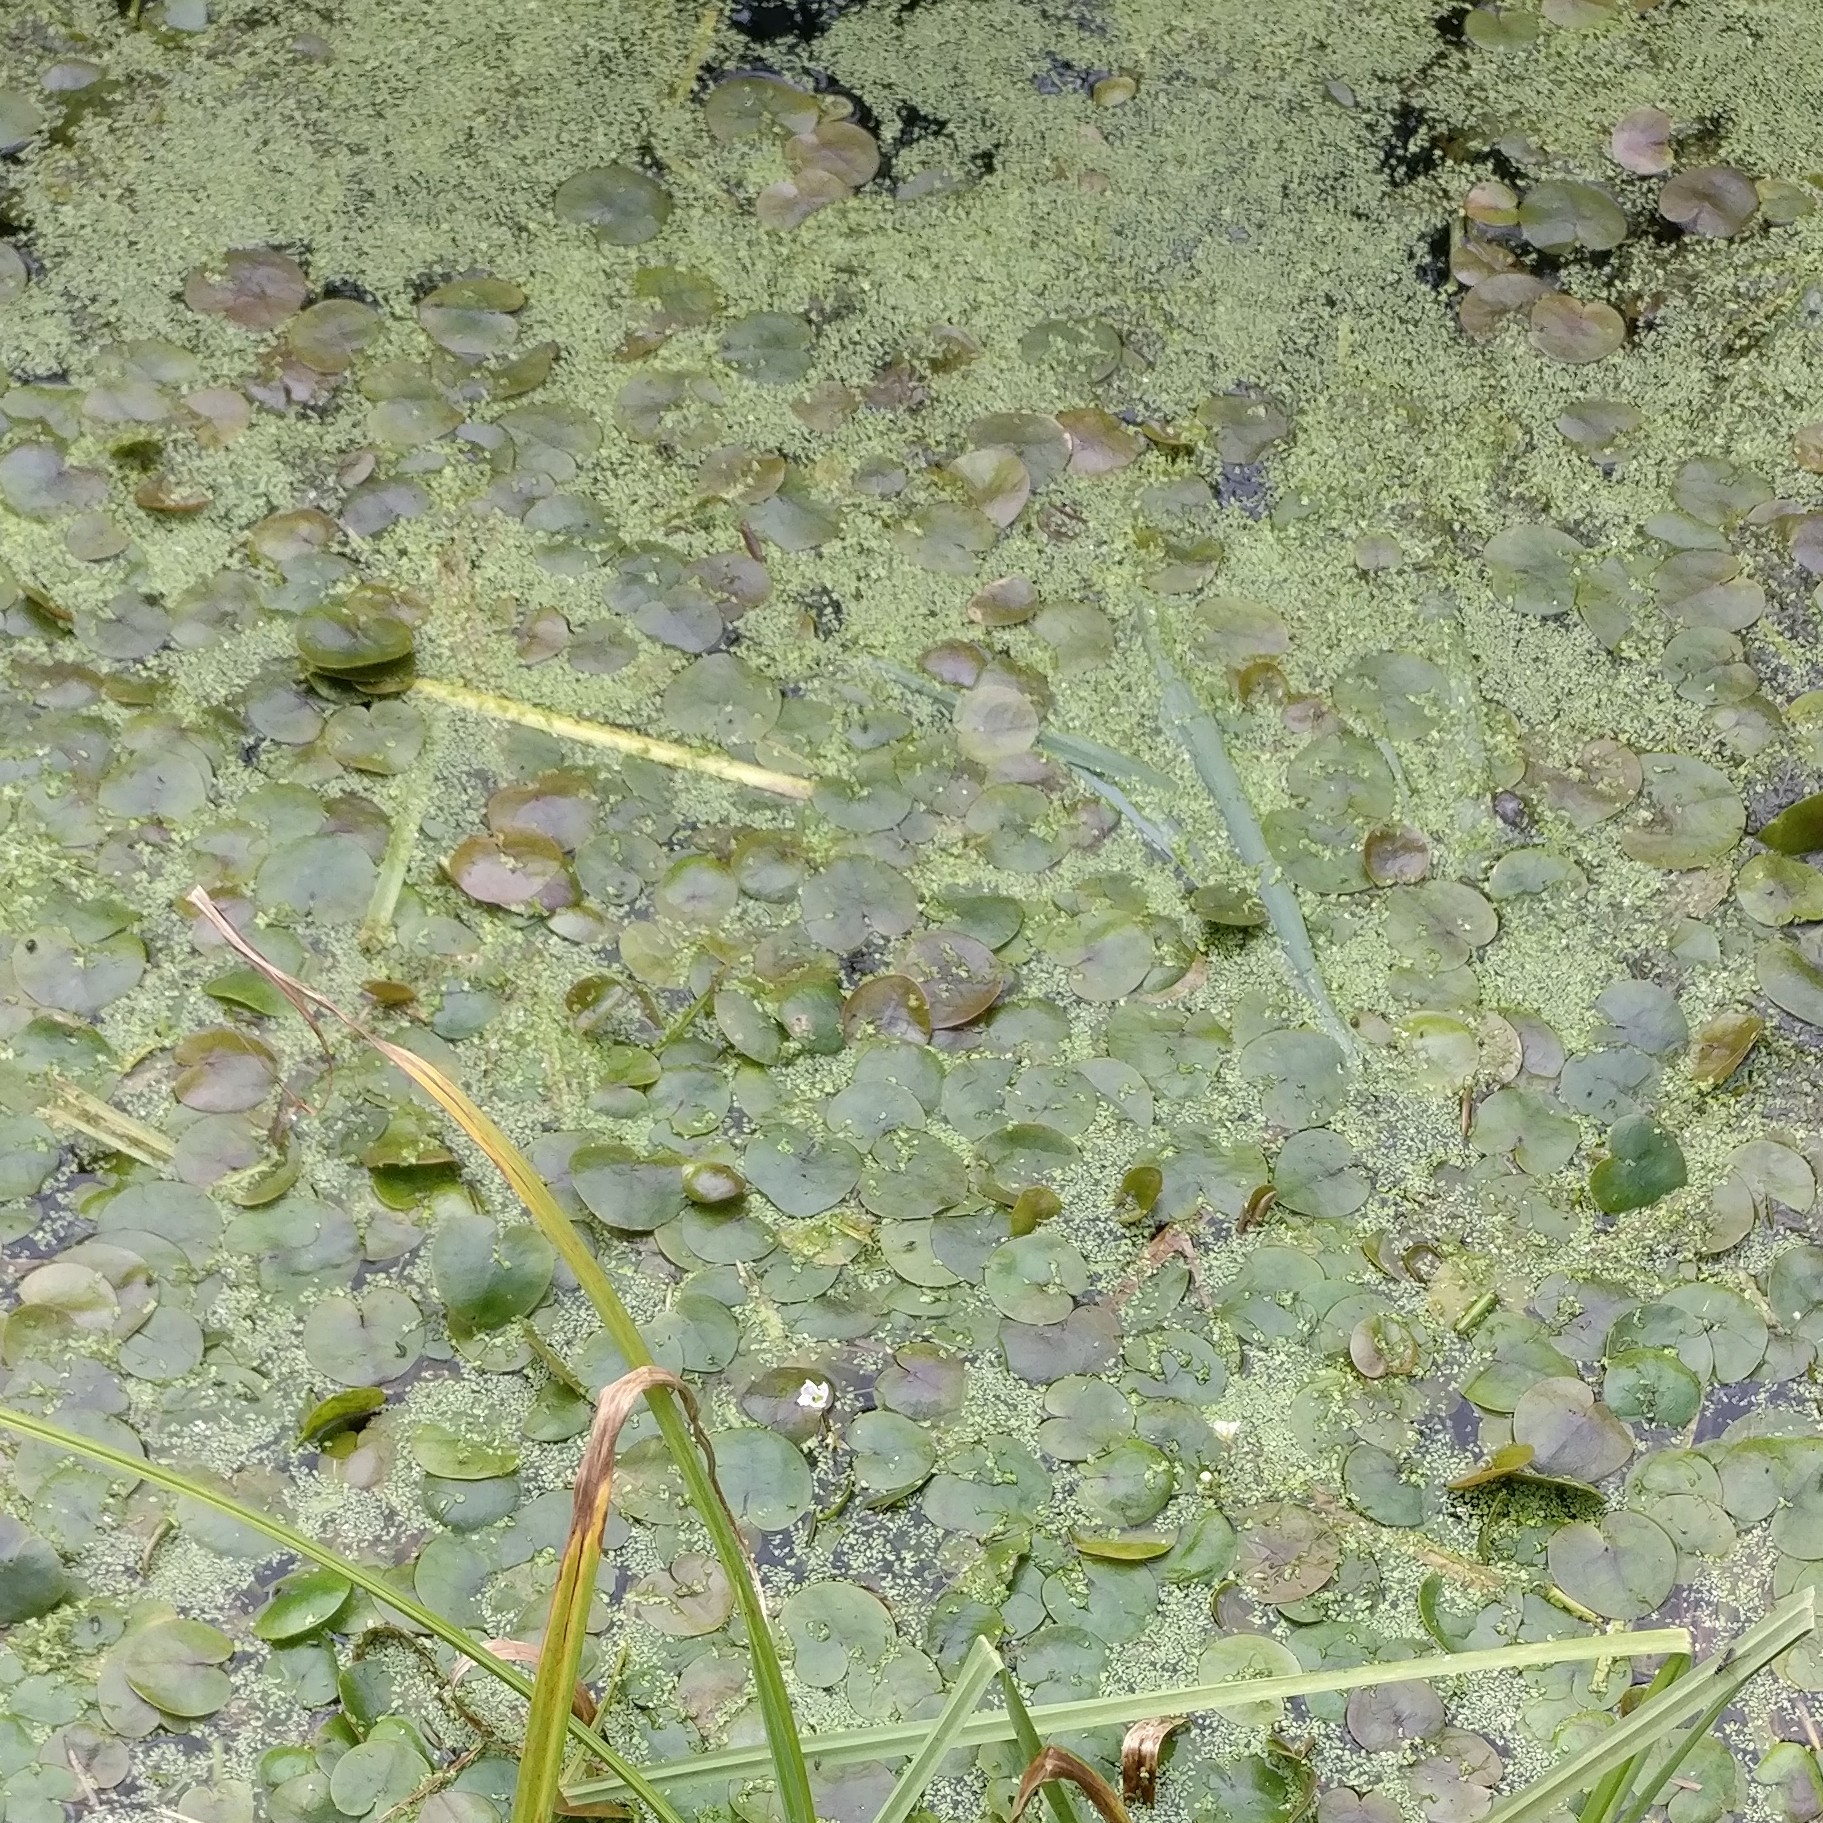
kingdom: Plantae
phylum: Tracheophyta
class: Liliopsida
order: Alismatales
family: Hydrocharitaceae
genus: Hydrocharis
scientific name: Hydrocharis morsus-ranae
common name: Frogbit
